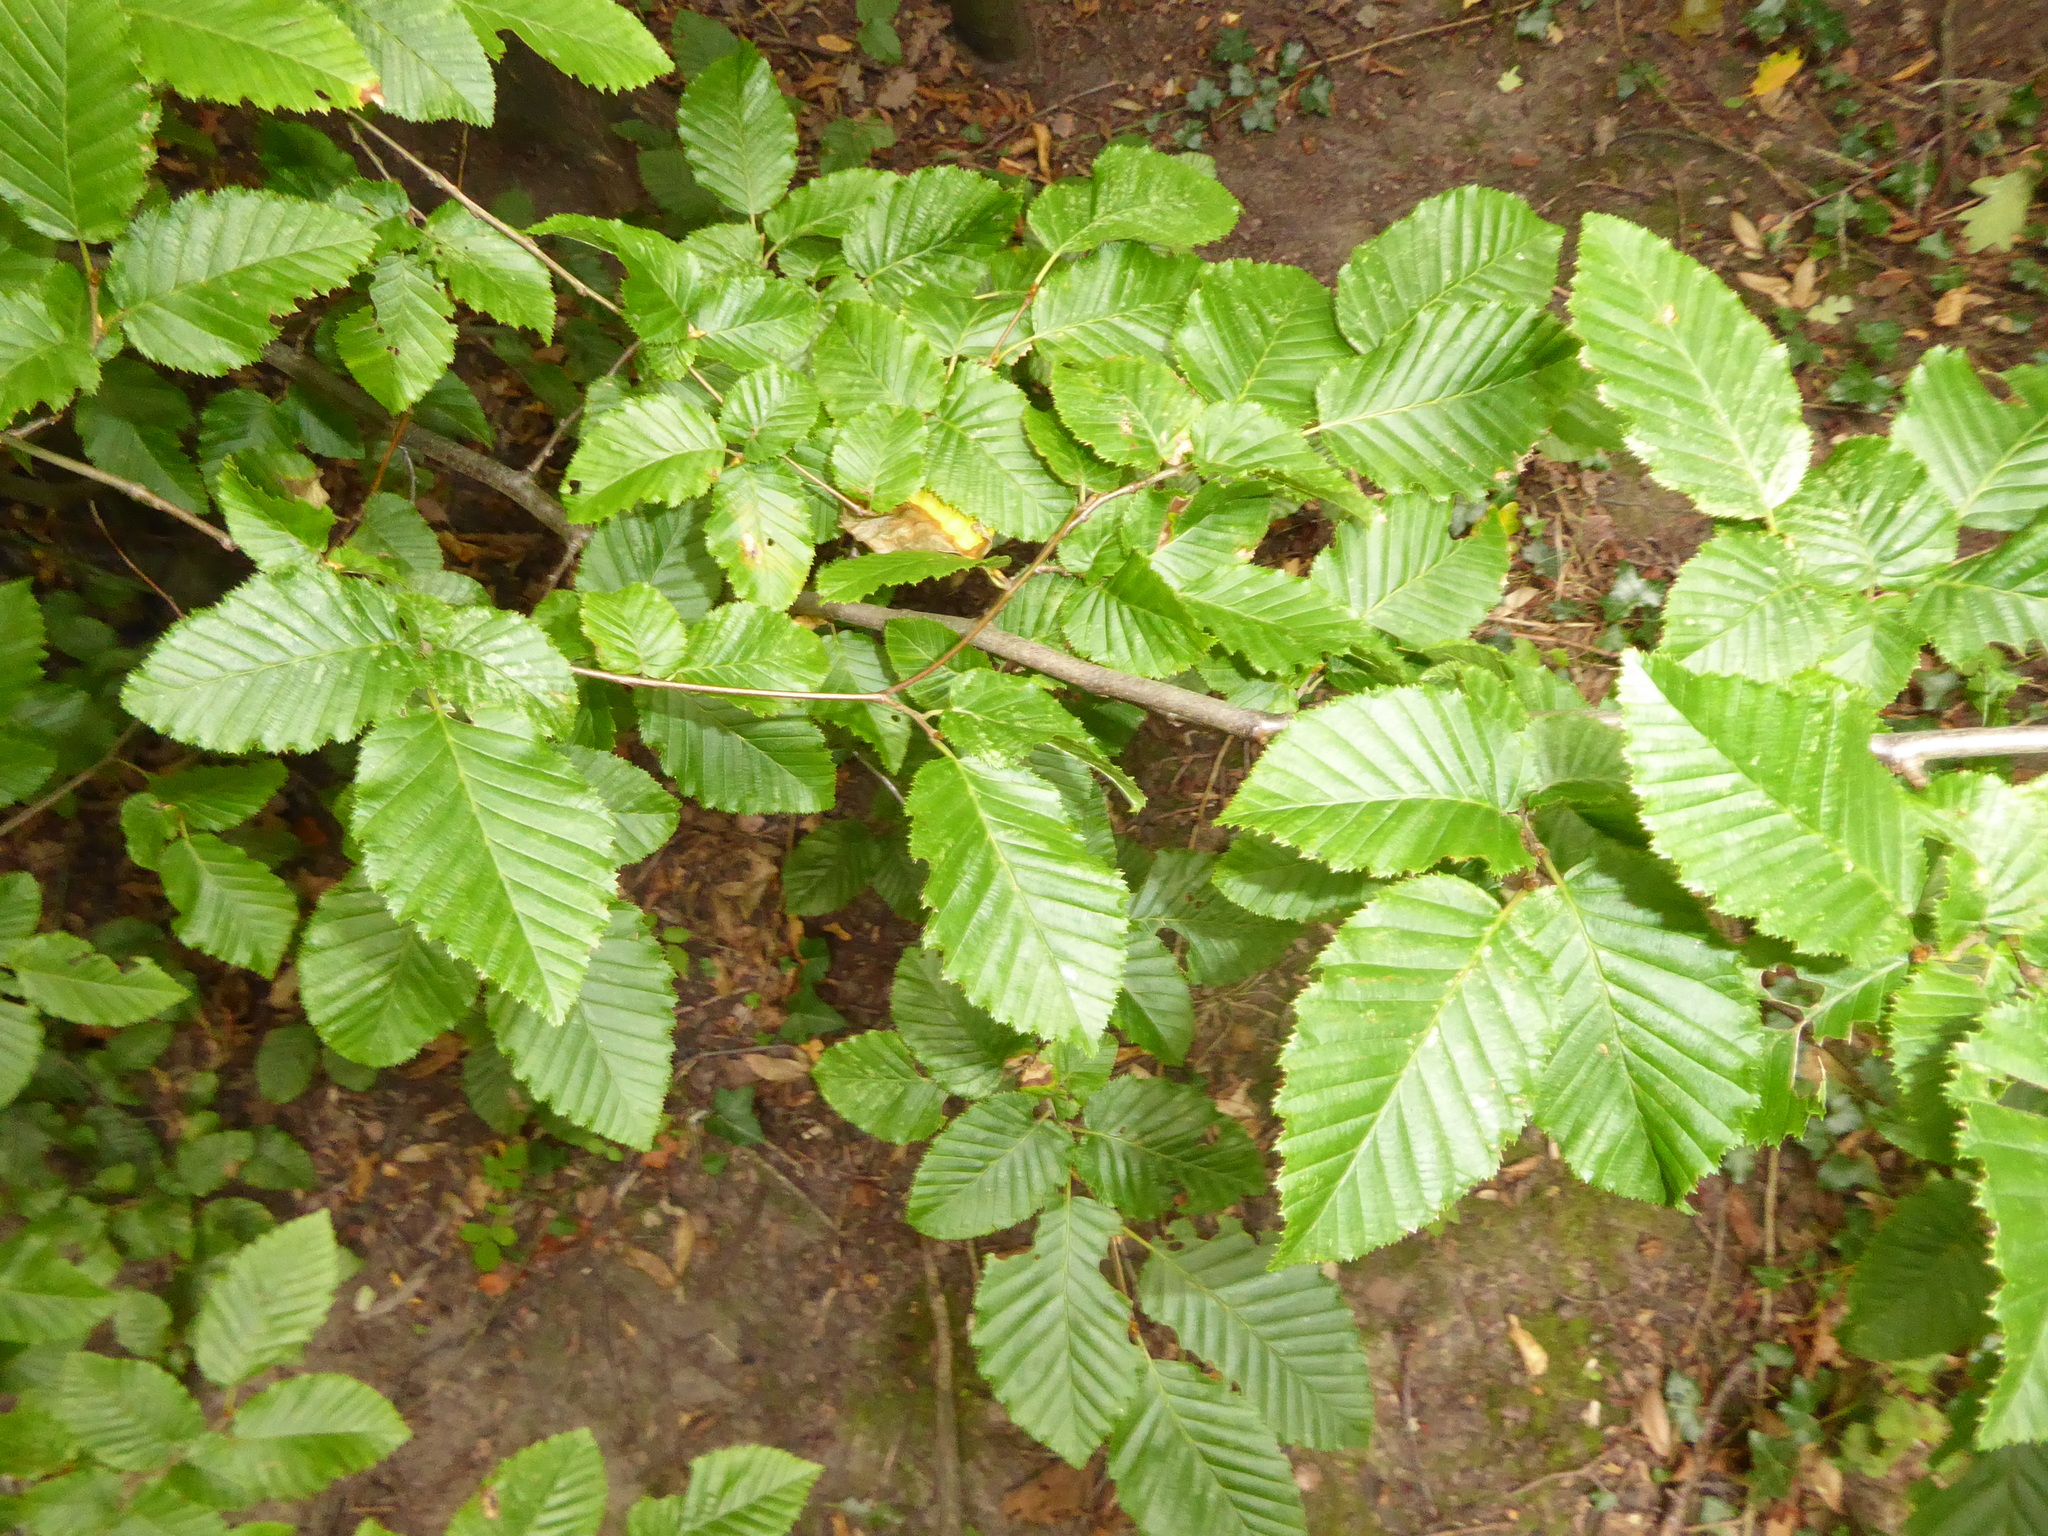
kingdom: Plantae
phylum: Tracheophyta
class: Magnoliopsida
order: Fagales
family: Betulaceae
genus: Carpinus
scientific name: Carpinus betulus
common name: Hornbeam
